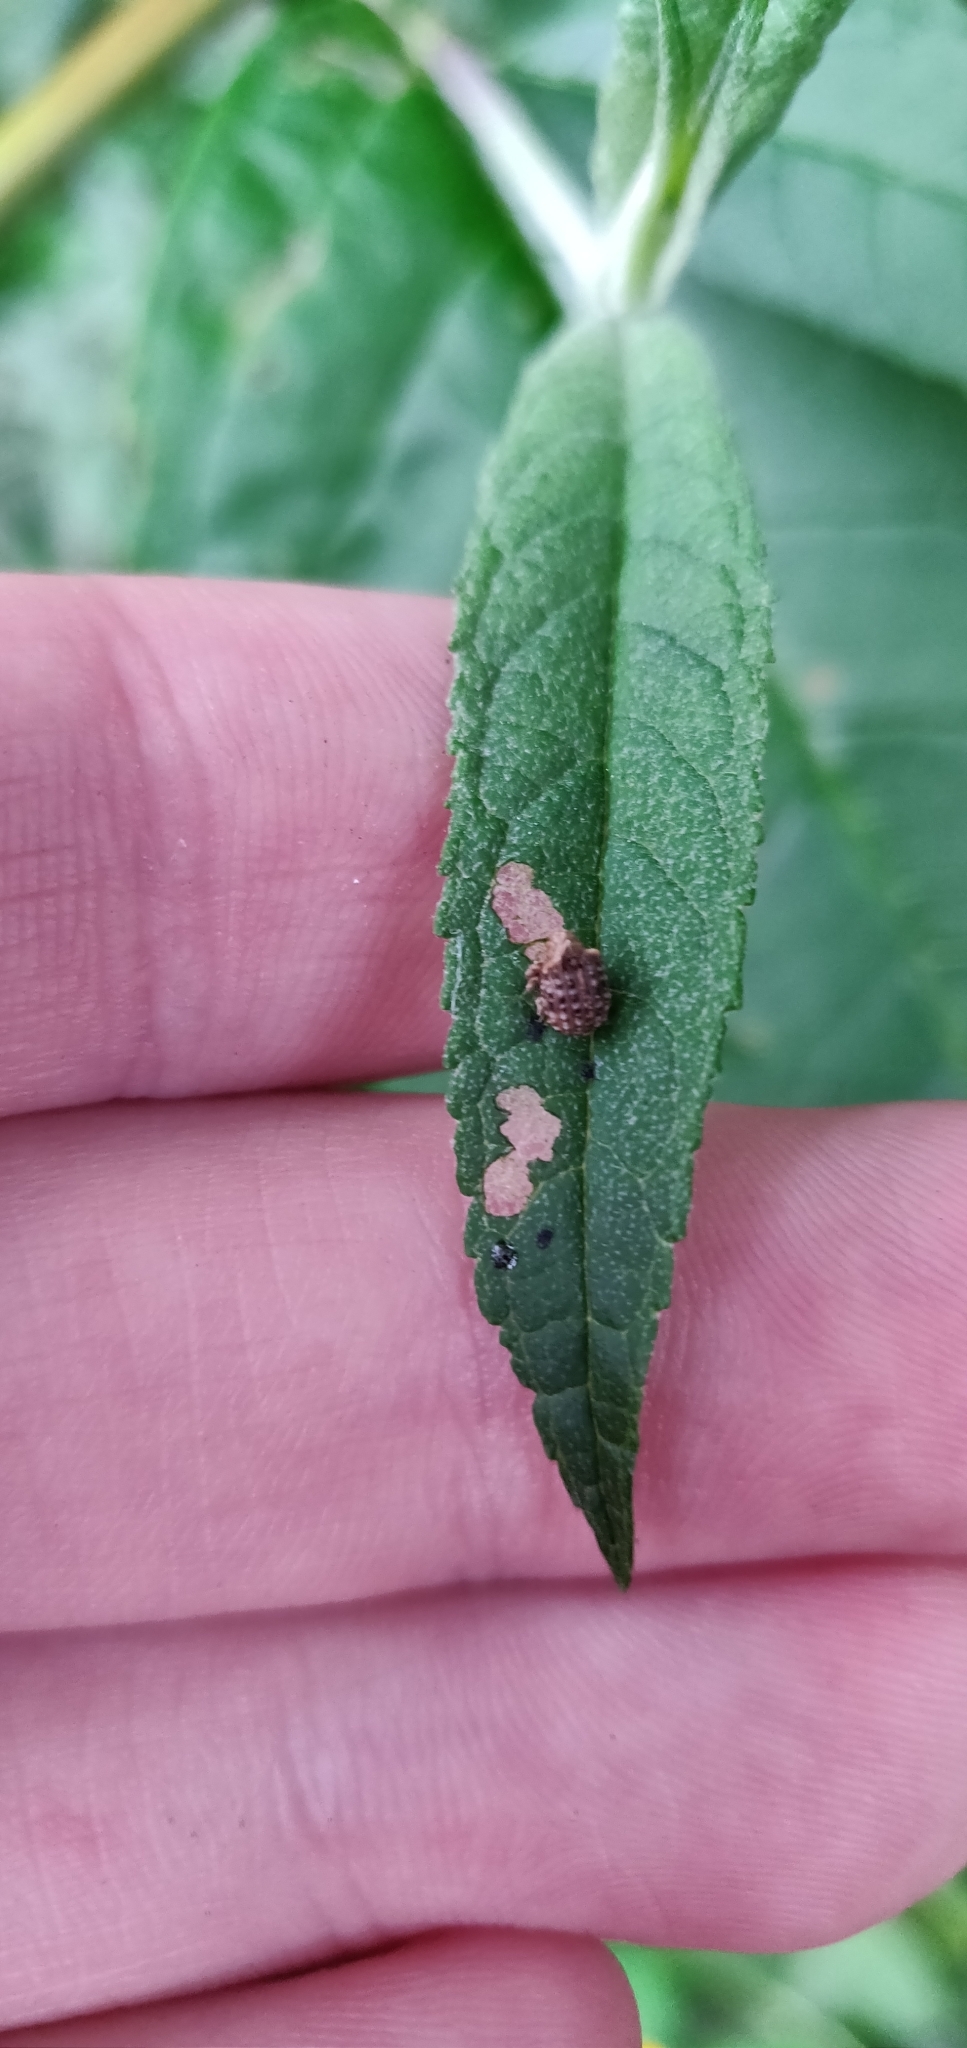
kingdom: Animalia
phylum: Arthropoda
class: Insecta
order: Coleoptera
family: Curculionidae
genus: Cleopus
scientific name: Cleopus japonicus
